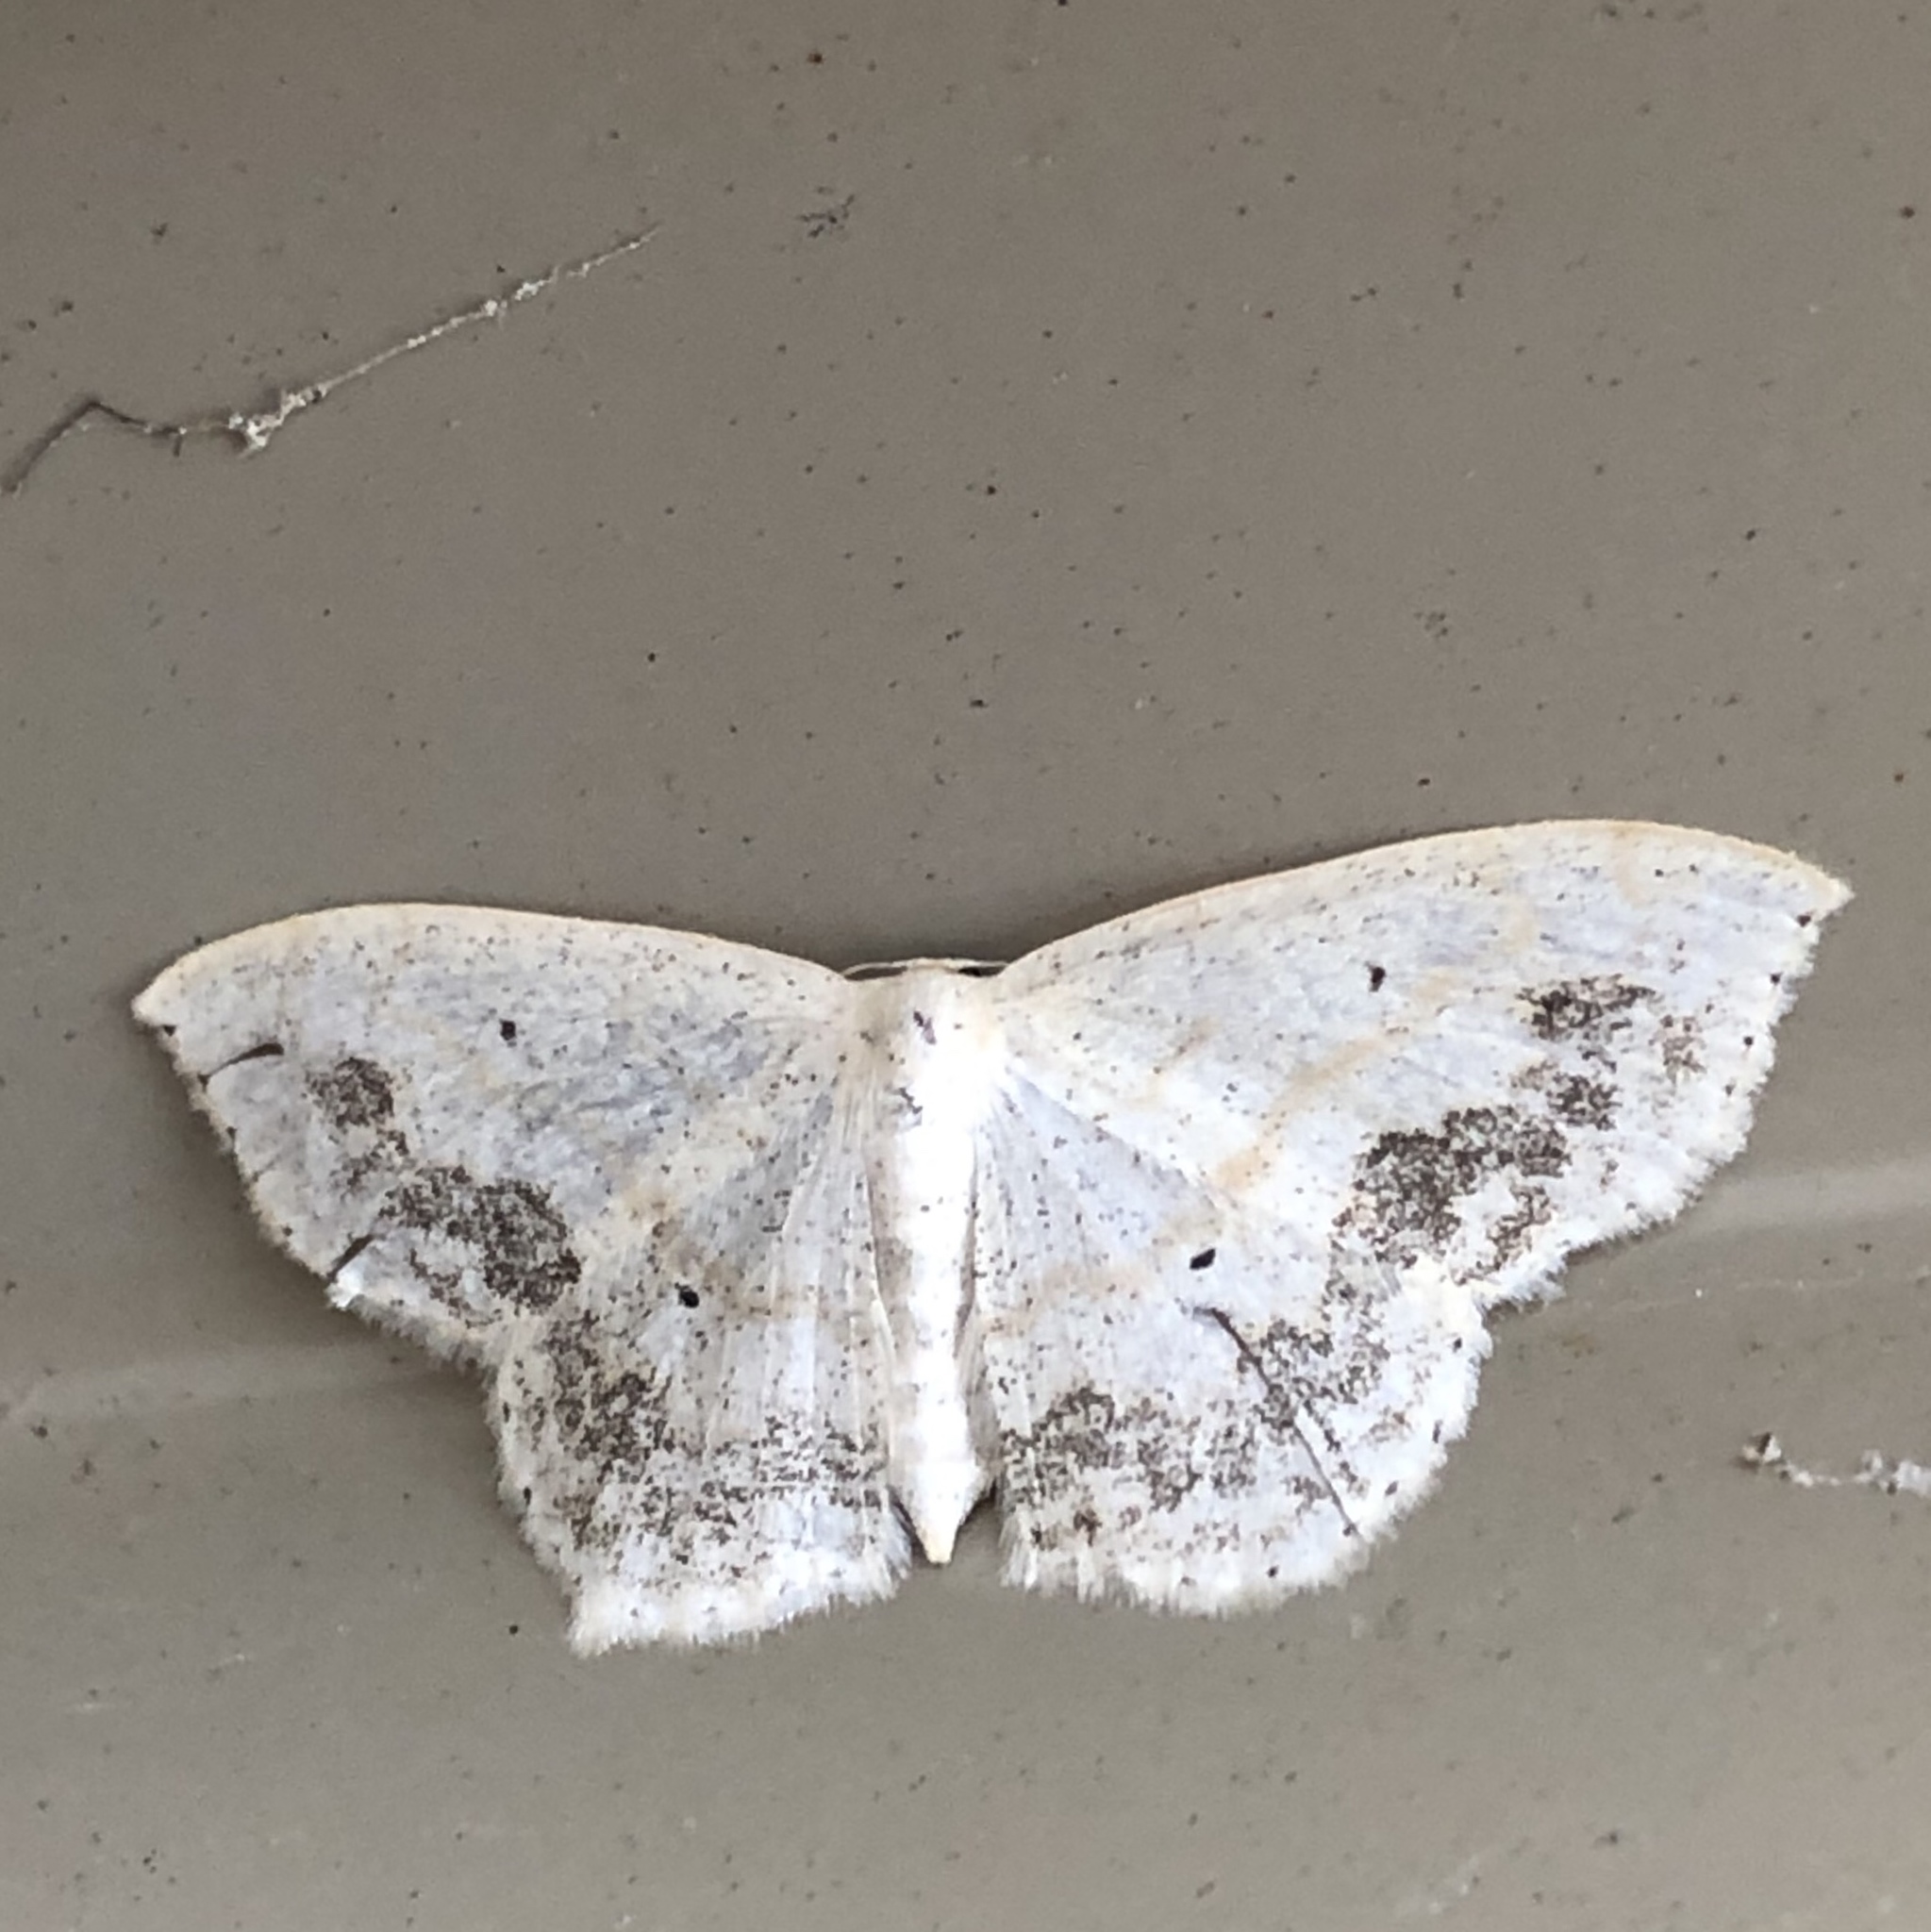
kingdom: Animalia
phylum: Arthropoda
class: Insecta
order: Lepidoptera
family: Geometridae
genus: Scopula
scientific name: Scopula limboundata
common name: Large lace border
